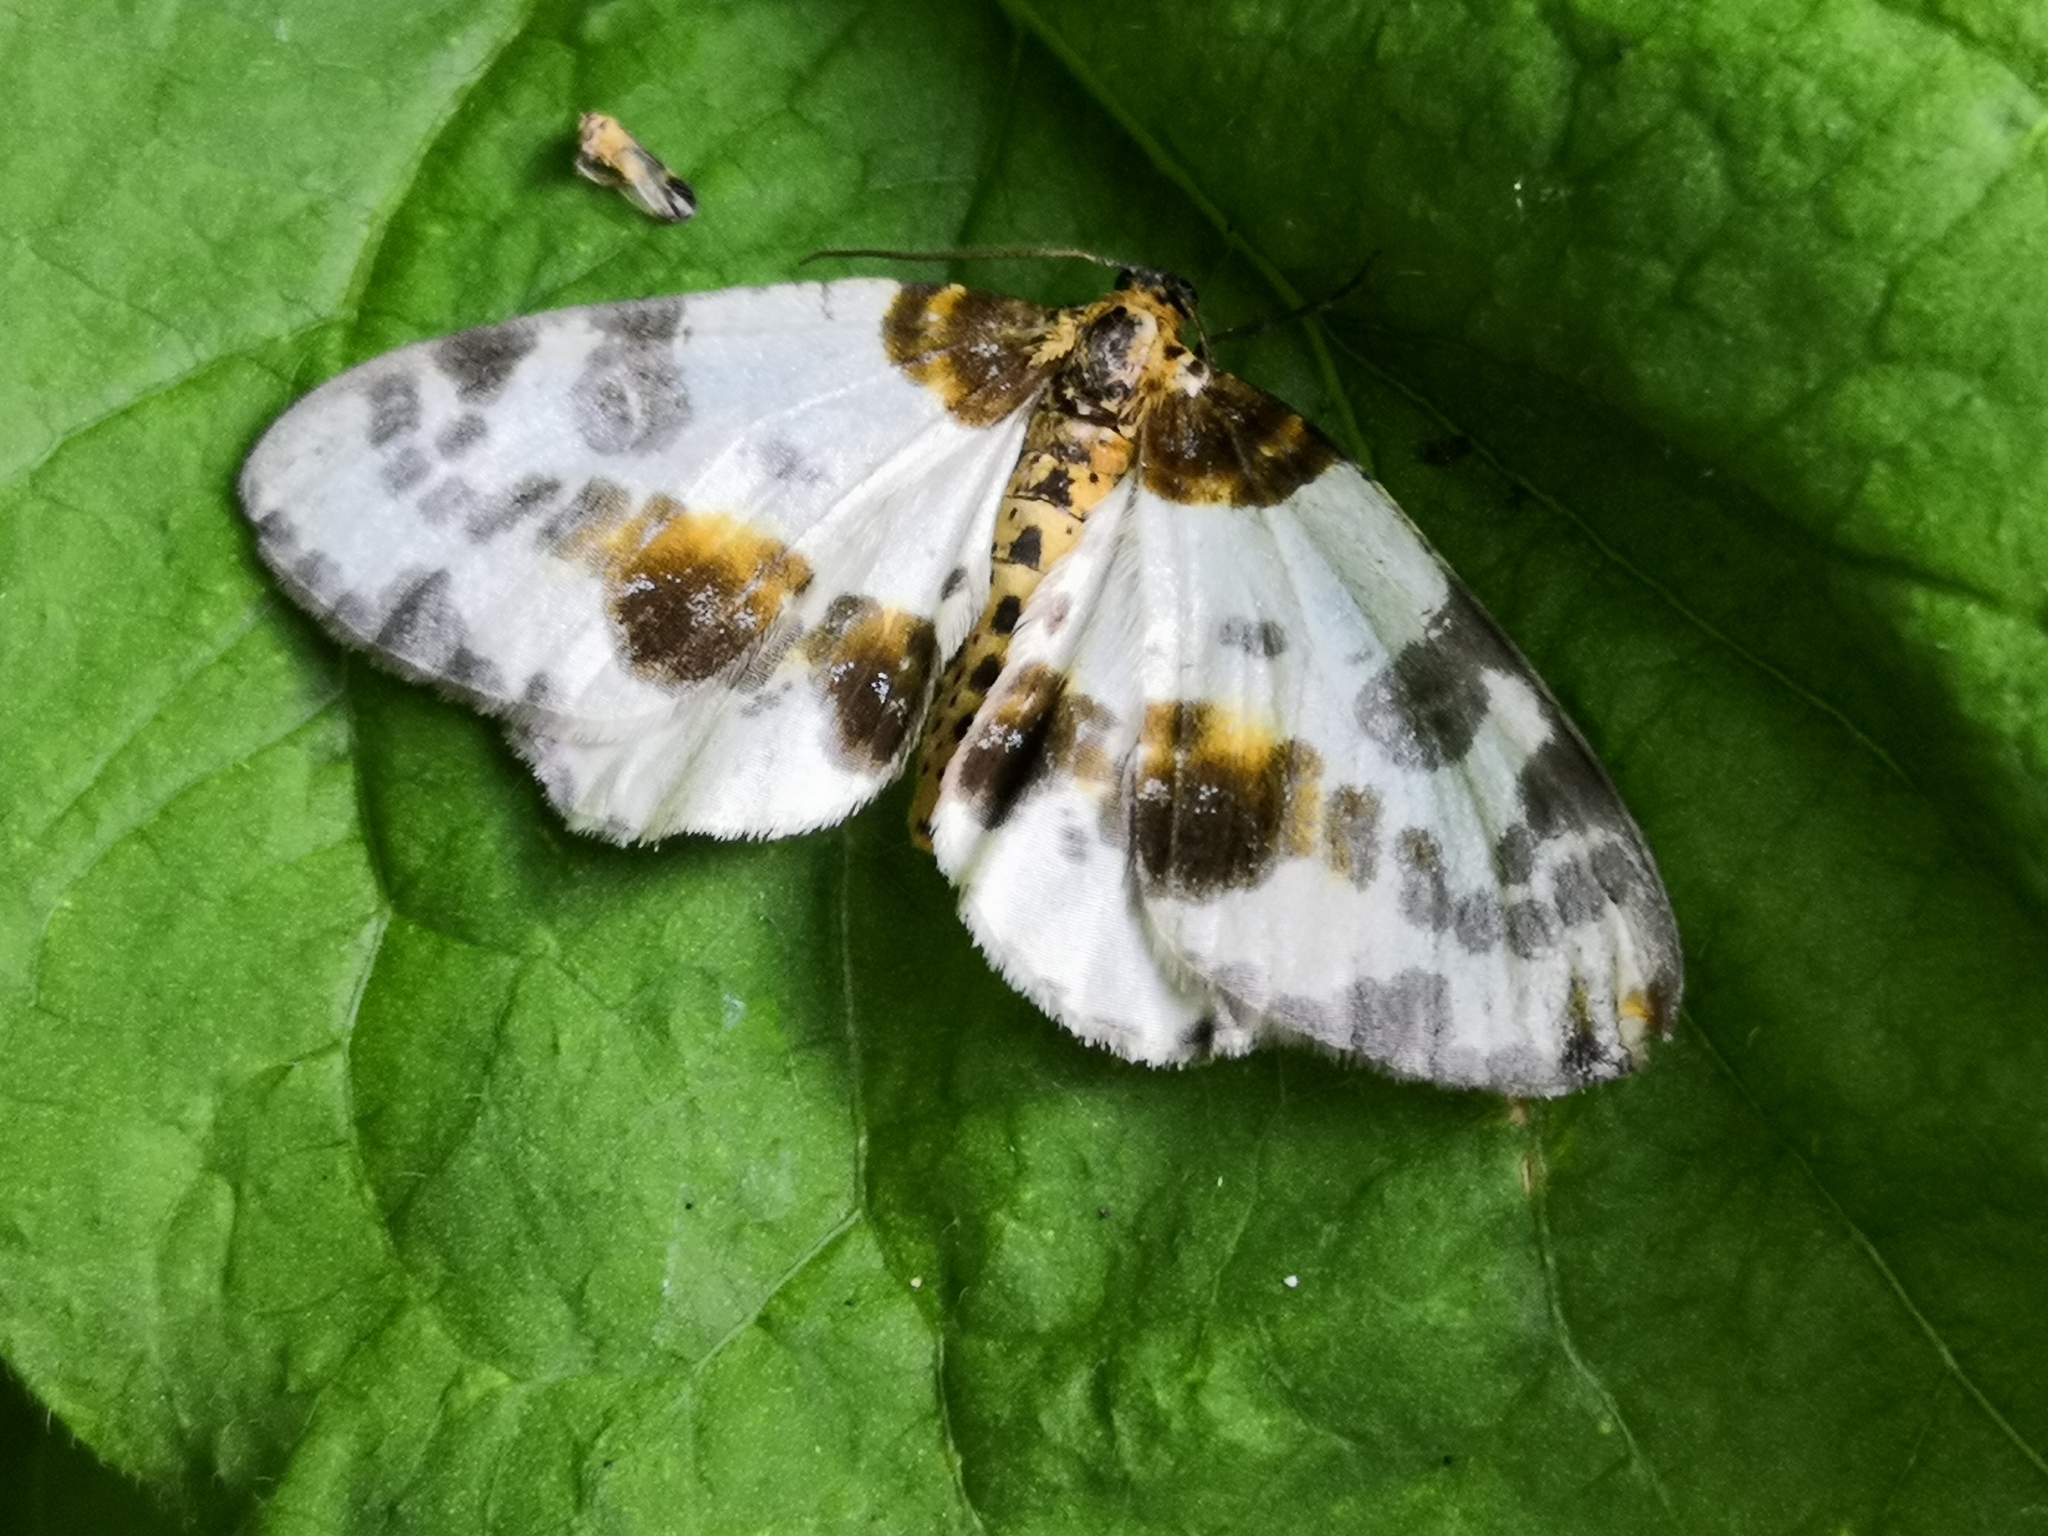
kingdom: Animalia
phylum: Arthropoda
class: Insecta
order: Lepidoptera
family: Geometridae
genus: Abraxas
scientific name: Abraxas sylvata
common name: Clouded magpie
